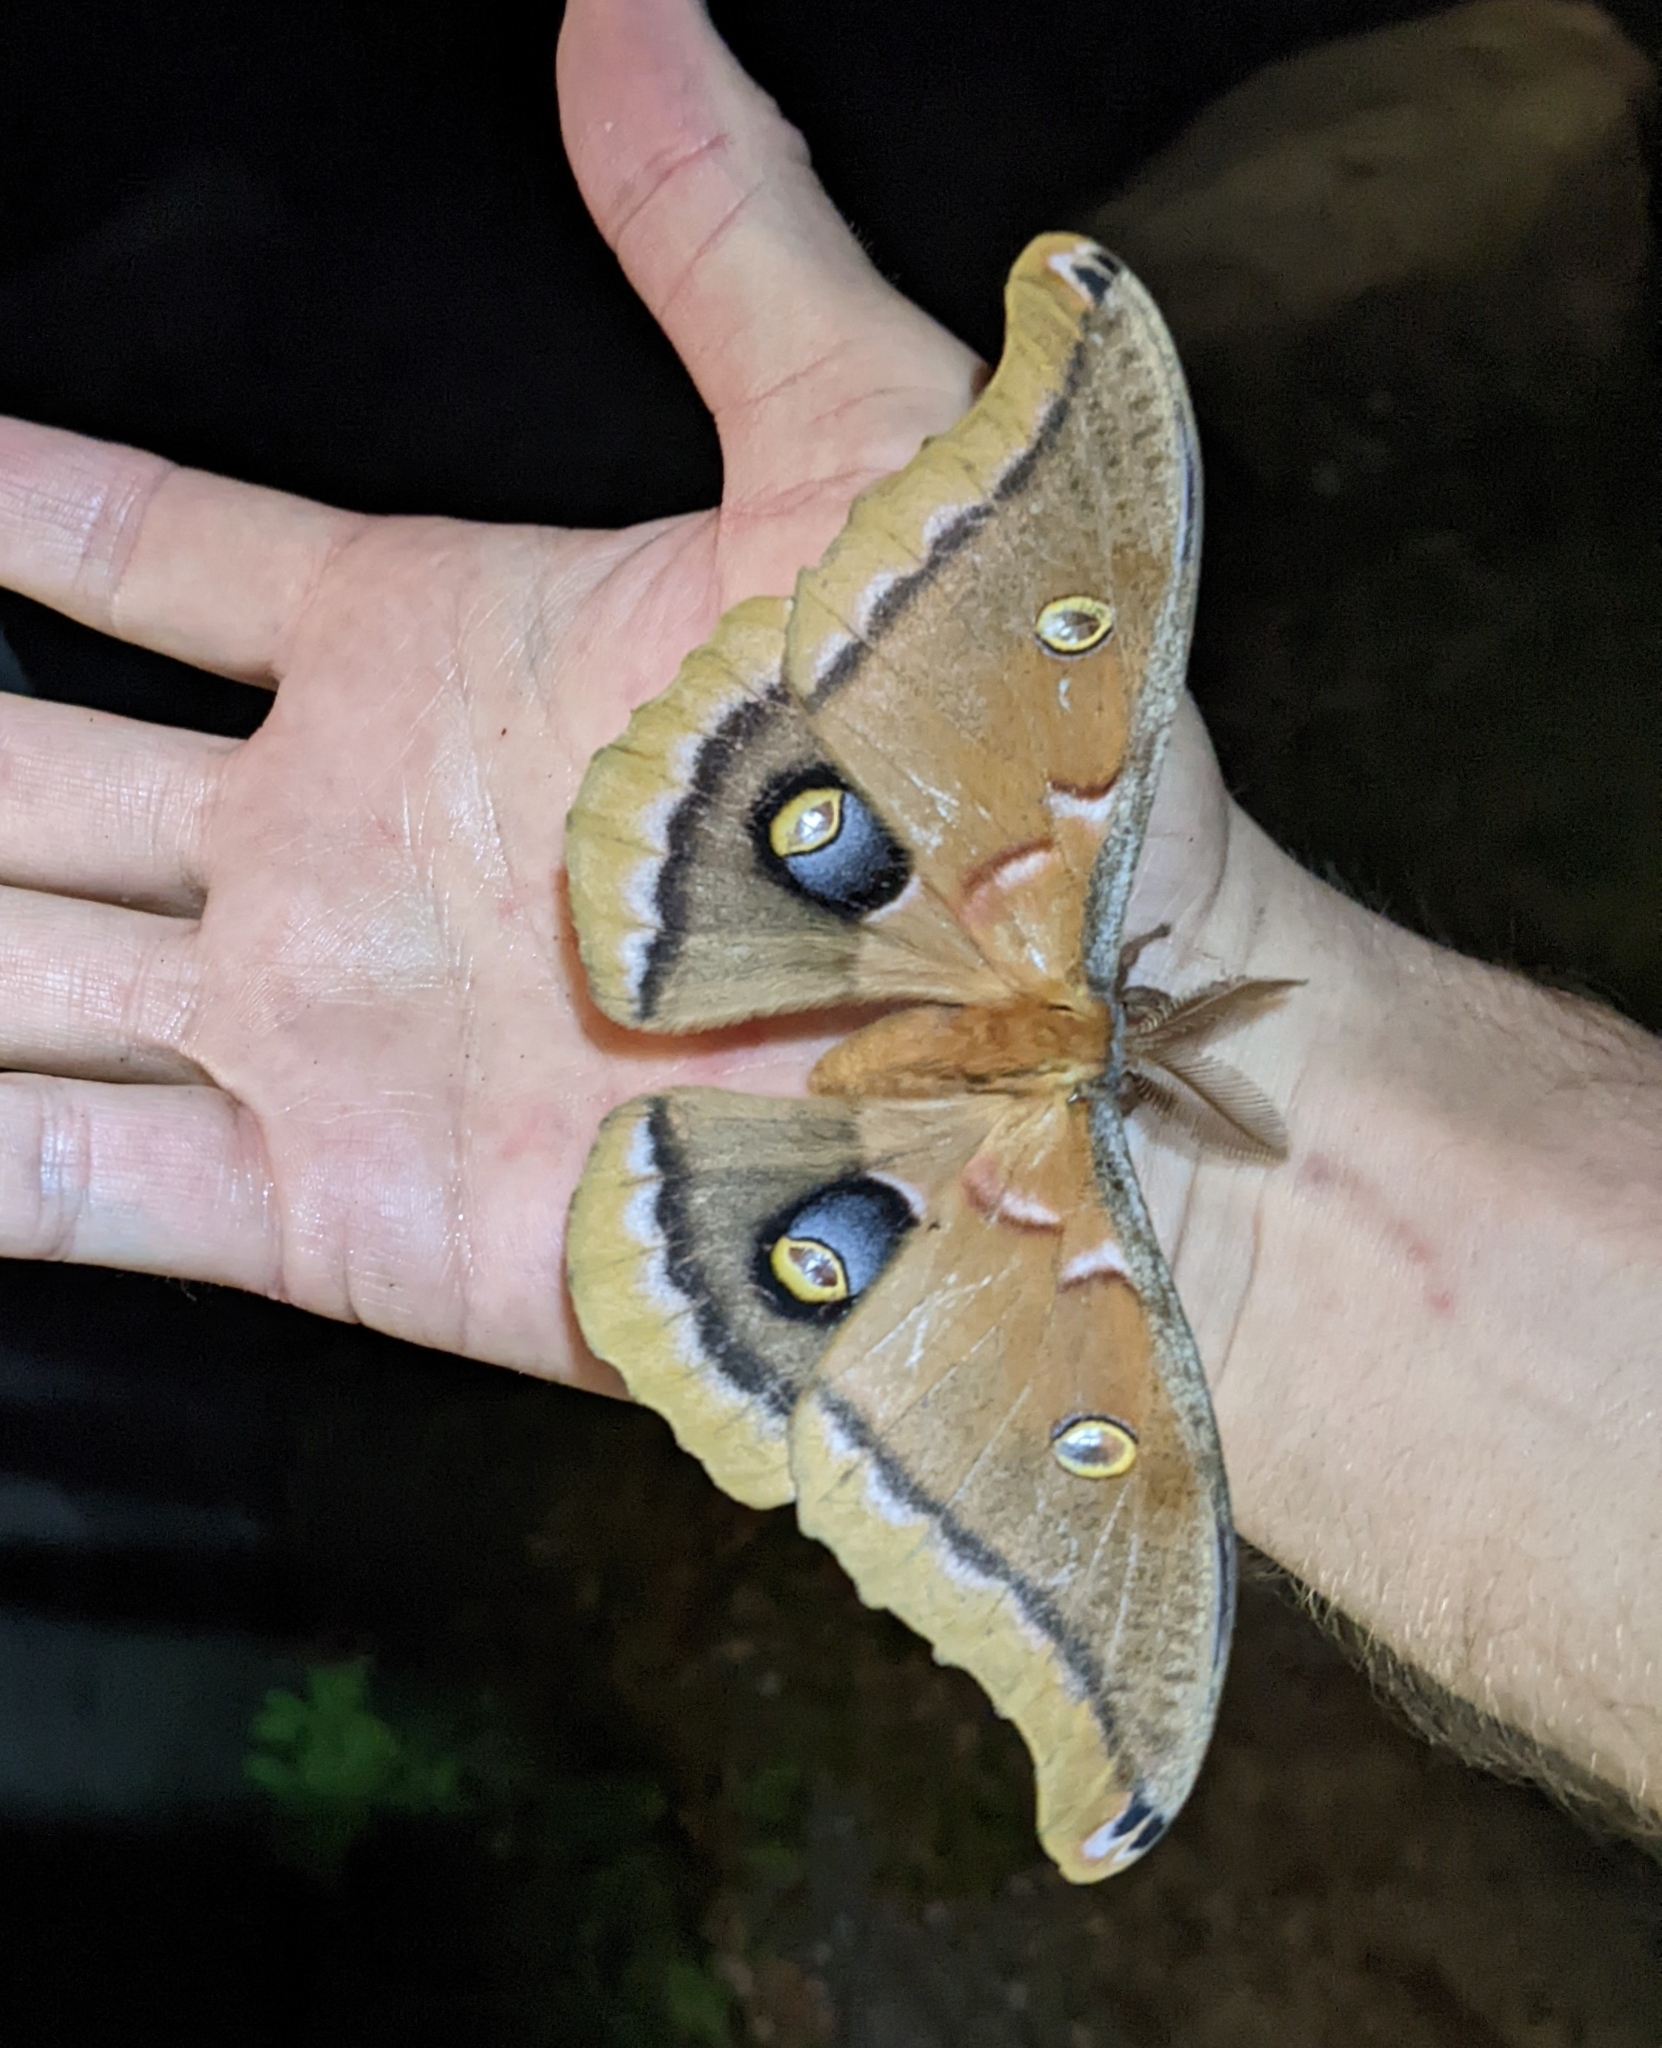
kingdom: Animalia
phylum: Arthropoda
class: Insecta
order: Lepidoptera
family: Saturniidae
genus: Antheraea
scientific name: Antheraea polyphemus
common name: Polyphemus moth
